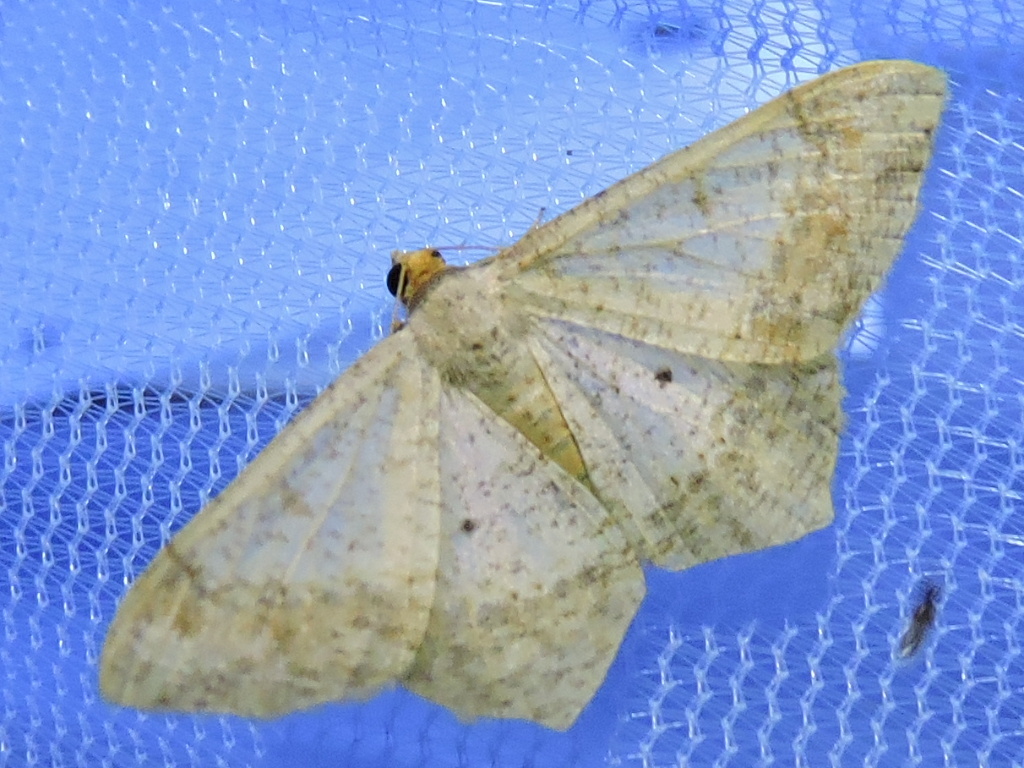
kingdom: Animalia
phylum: Arthropoda
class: Insecta
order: Lepidoptera
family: Geometridae
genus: Macaria
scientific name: Macaria abydata
